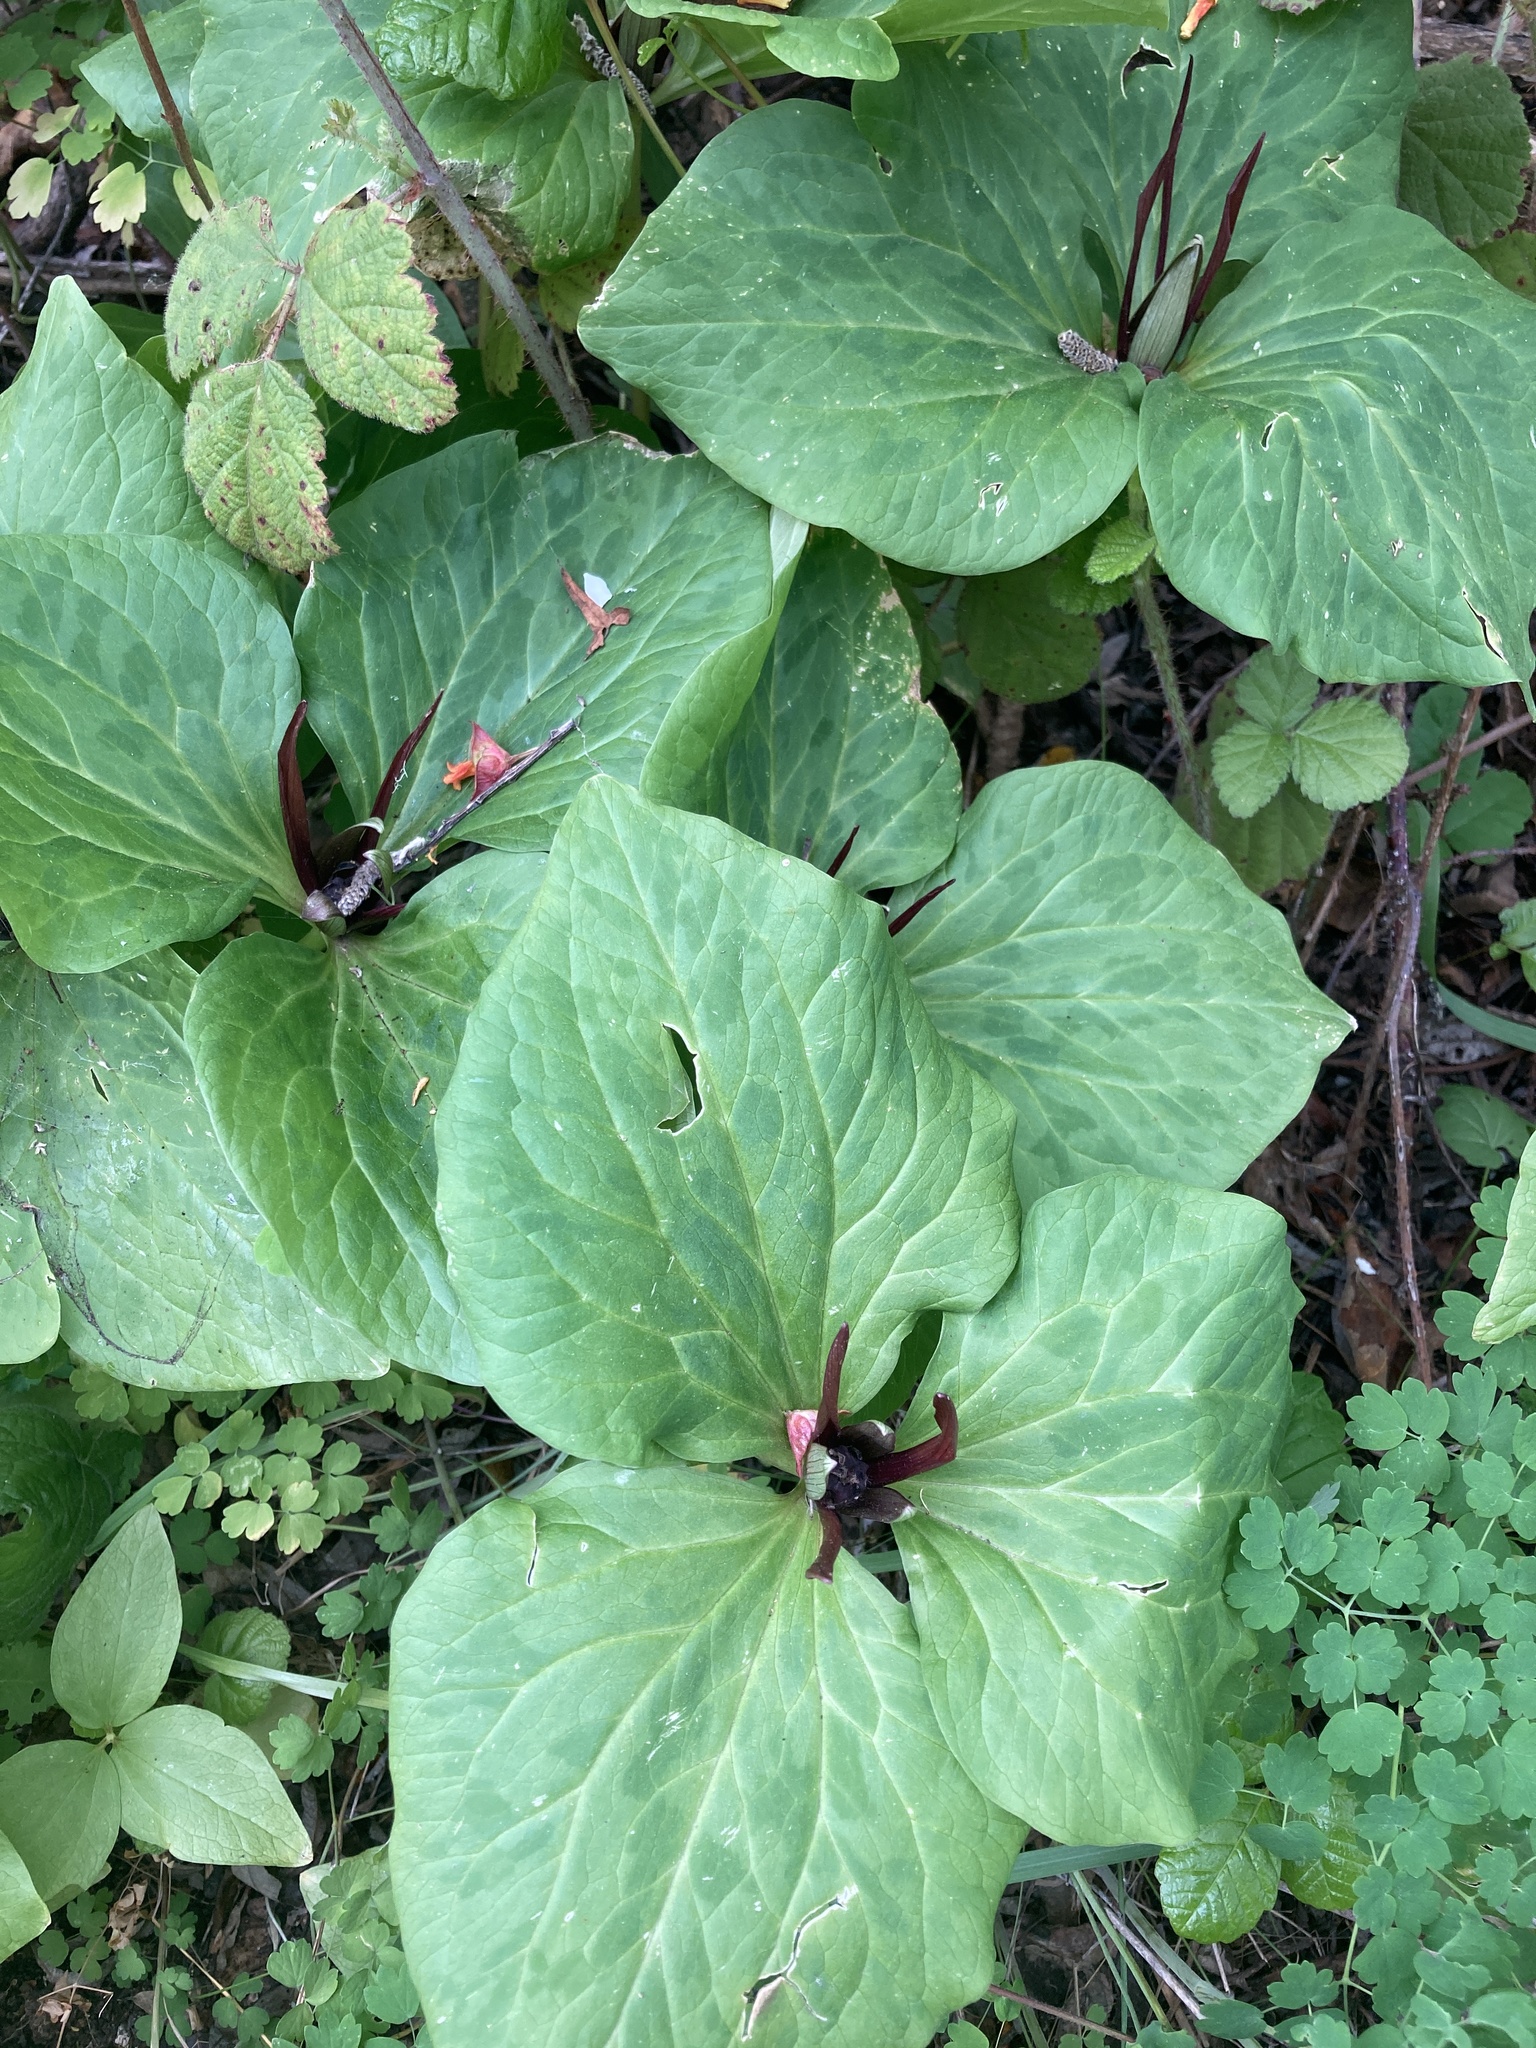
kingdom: Plantae
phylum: Tracheophyta
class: Liliopsida
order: Liliales
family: Melanthiaceae
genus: Trillium
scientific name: Trillium angustipetalum
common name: Narrow-petaled trillium
